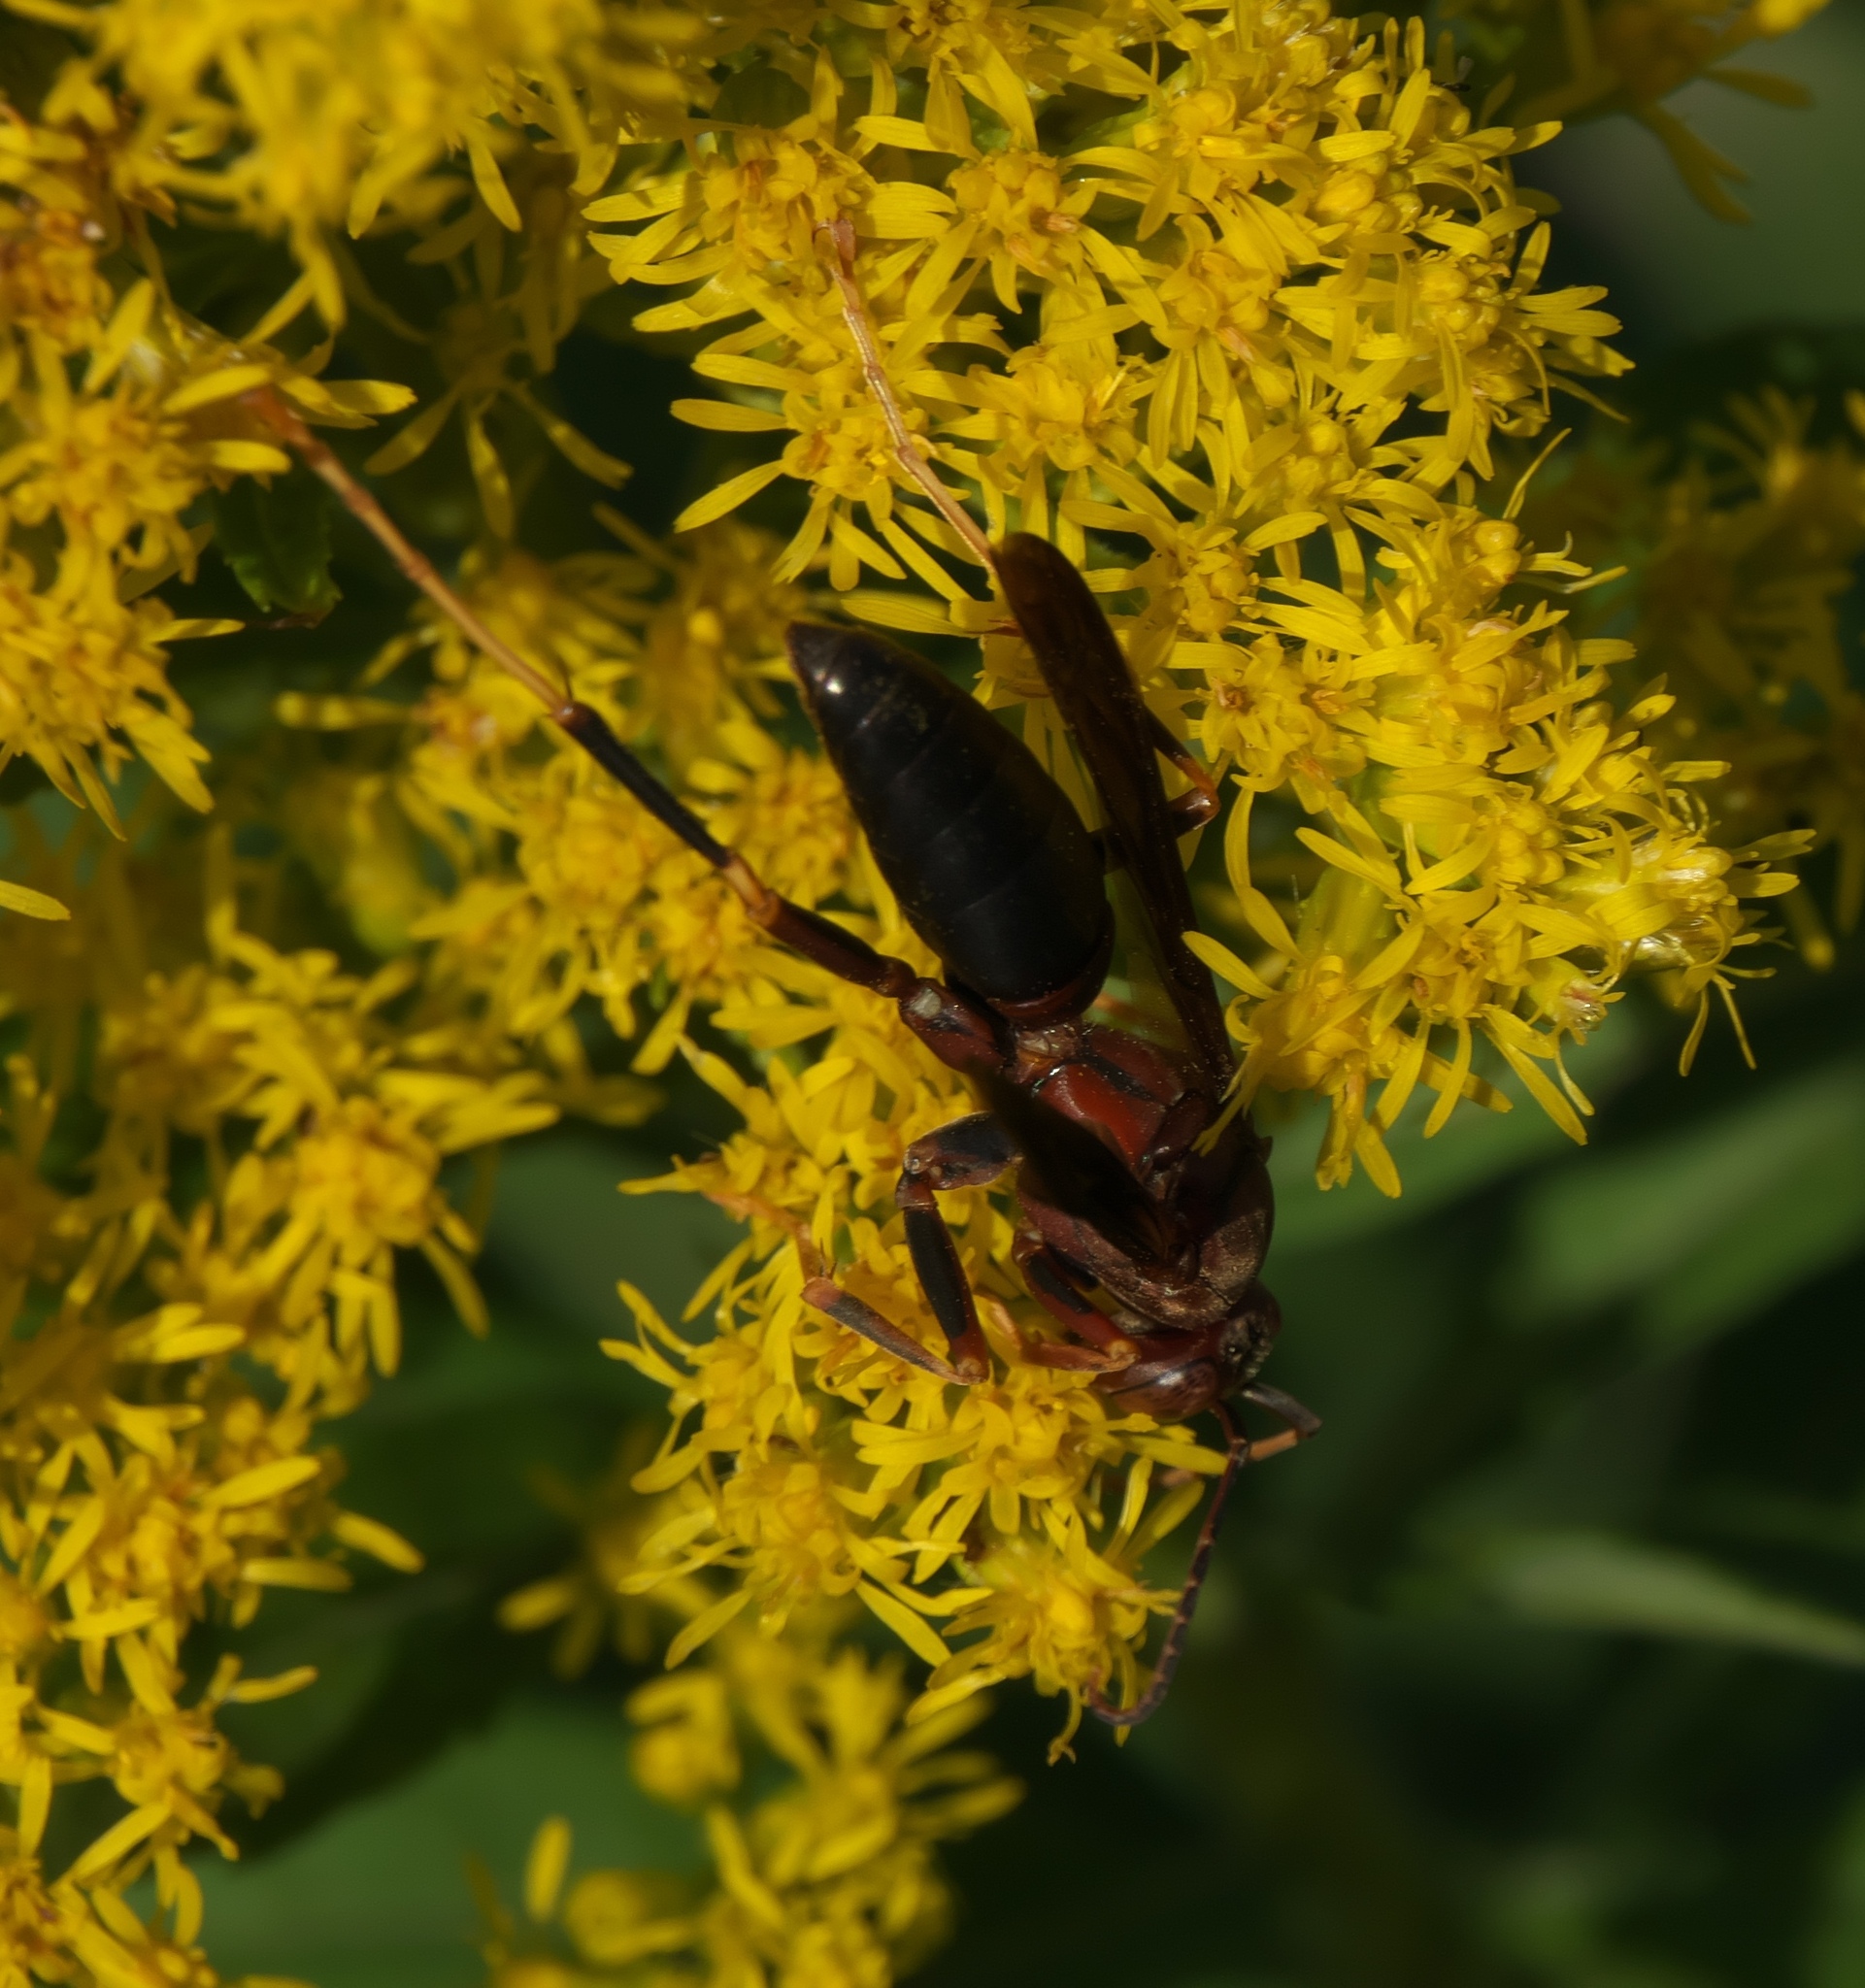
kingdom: Animalia
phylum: Arthropoda
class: Insecta
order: Hymenoptera
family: Eumenidae
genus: Polistes
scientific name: Polistes metricus
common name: Metric paper wasp
